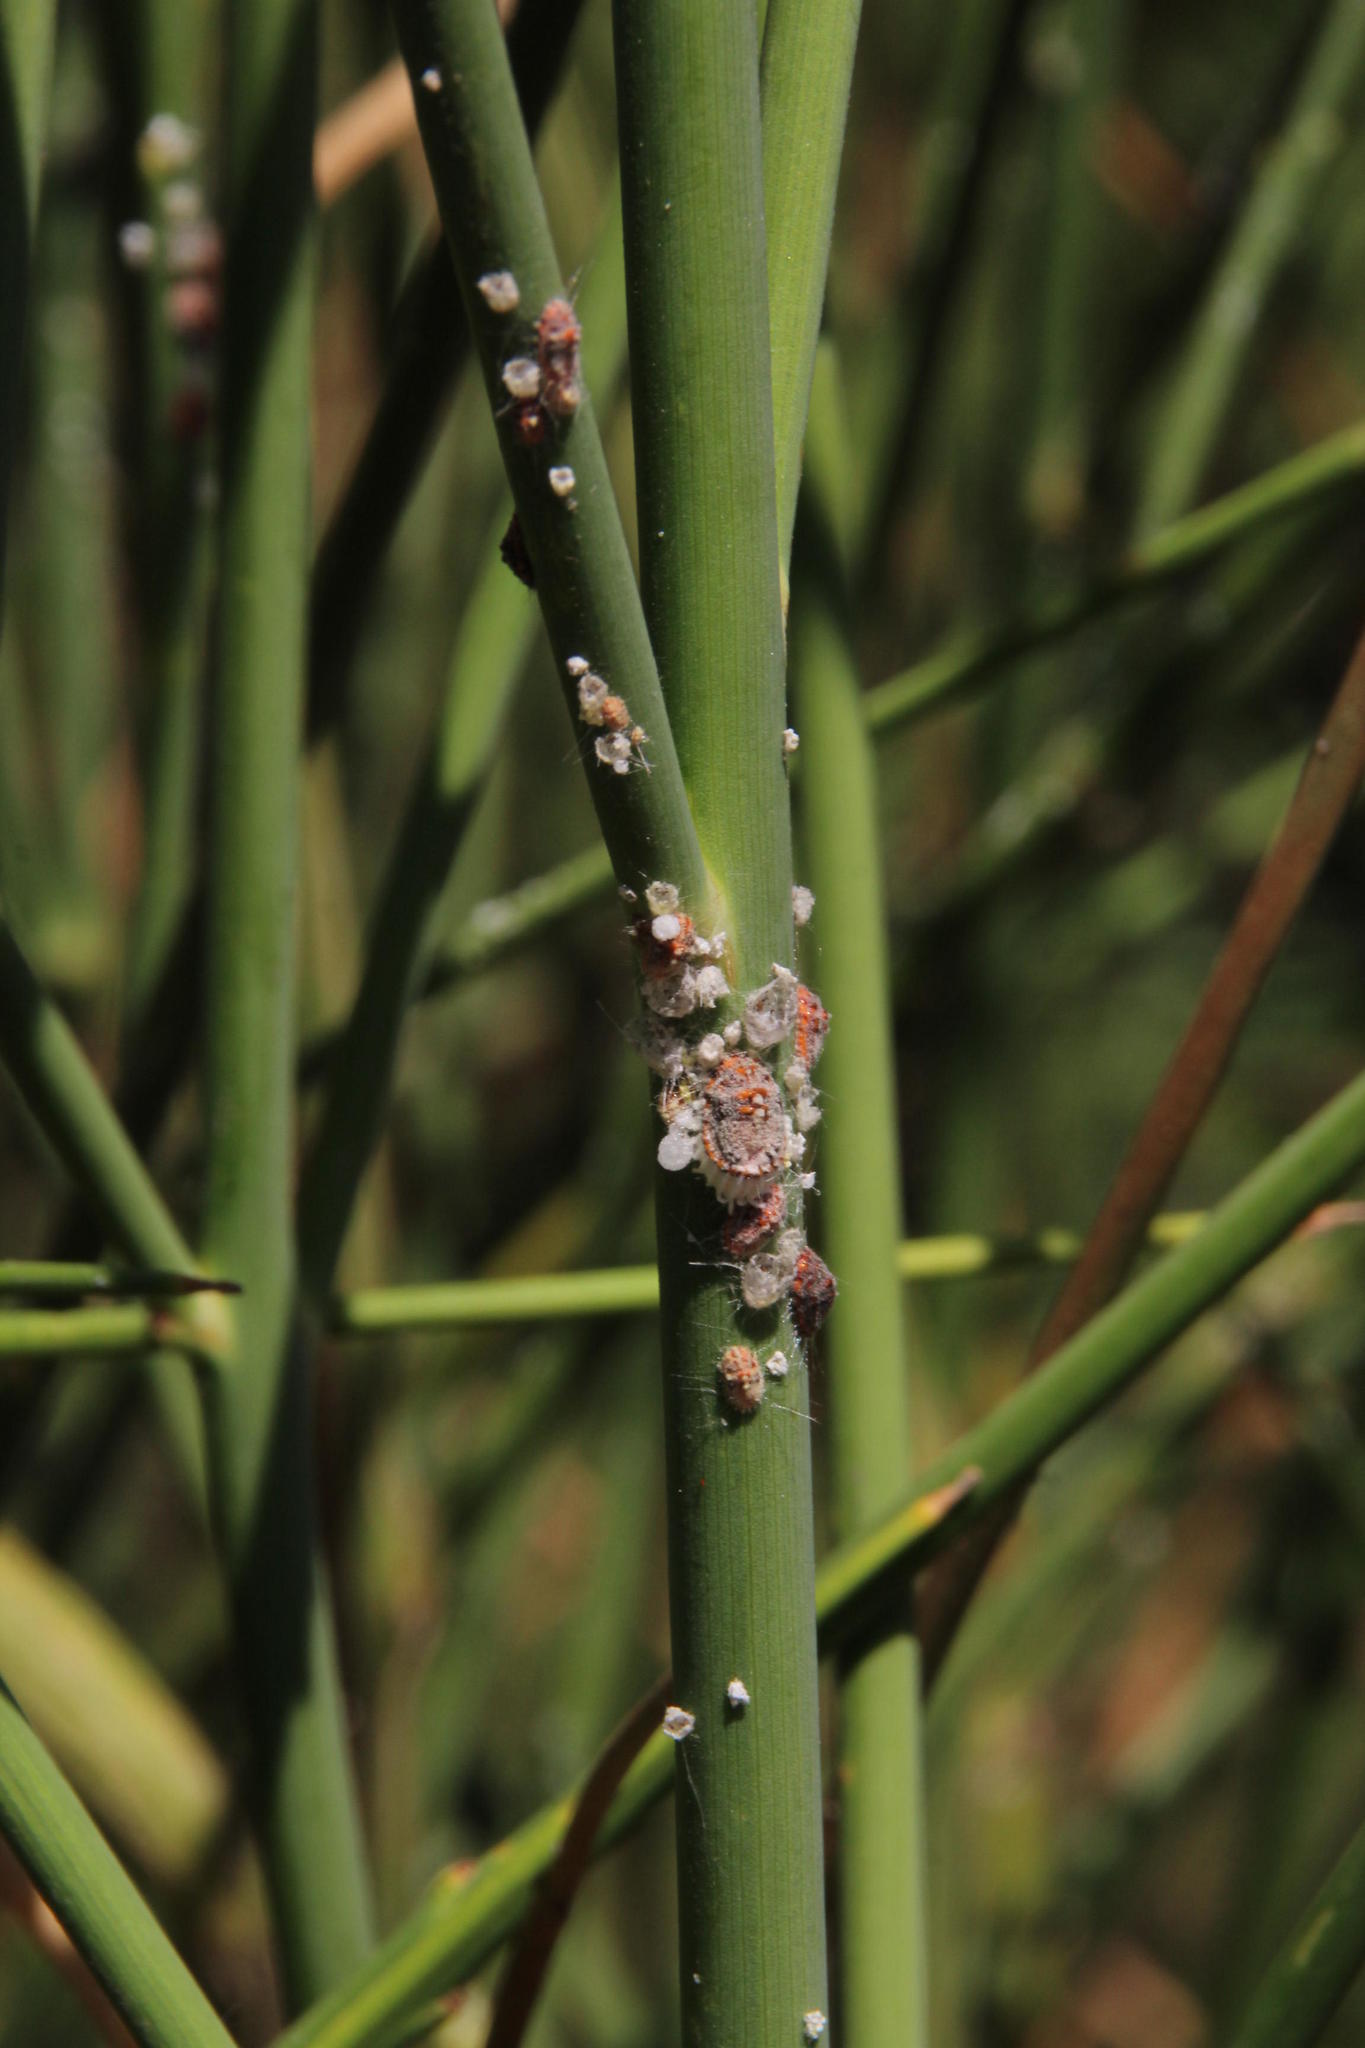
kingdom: Plantae
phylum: Tracheophyta
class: Magnoliopsida
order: Fabales
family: Fabaceae
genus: Spartium
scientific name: Spartium junceum
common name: Spanish broom
